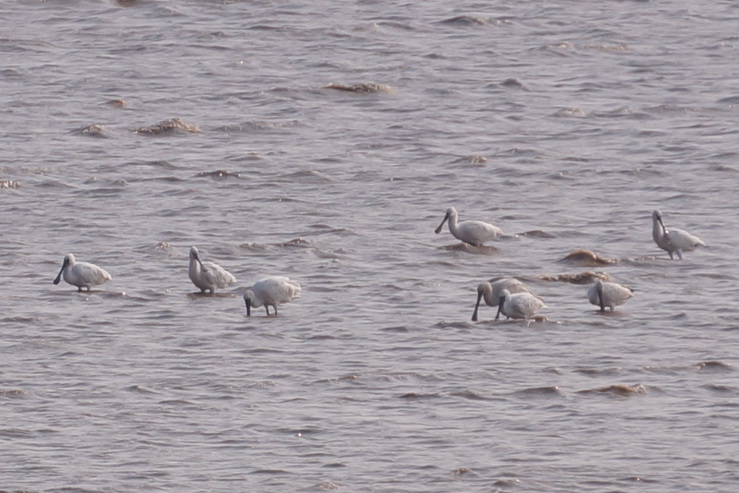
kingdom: Animalia
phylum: Chordata
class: Aves
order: Pelecaniformes
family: Threskiornithidae
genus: Platalea
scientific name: Platalea minor
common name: Black-faced spoonbill
